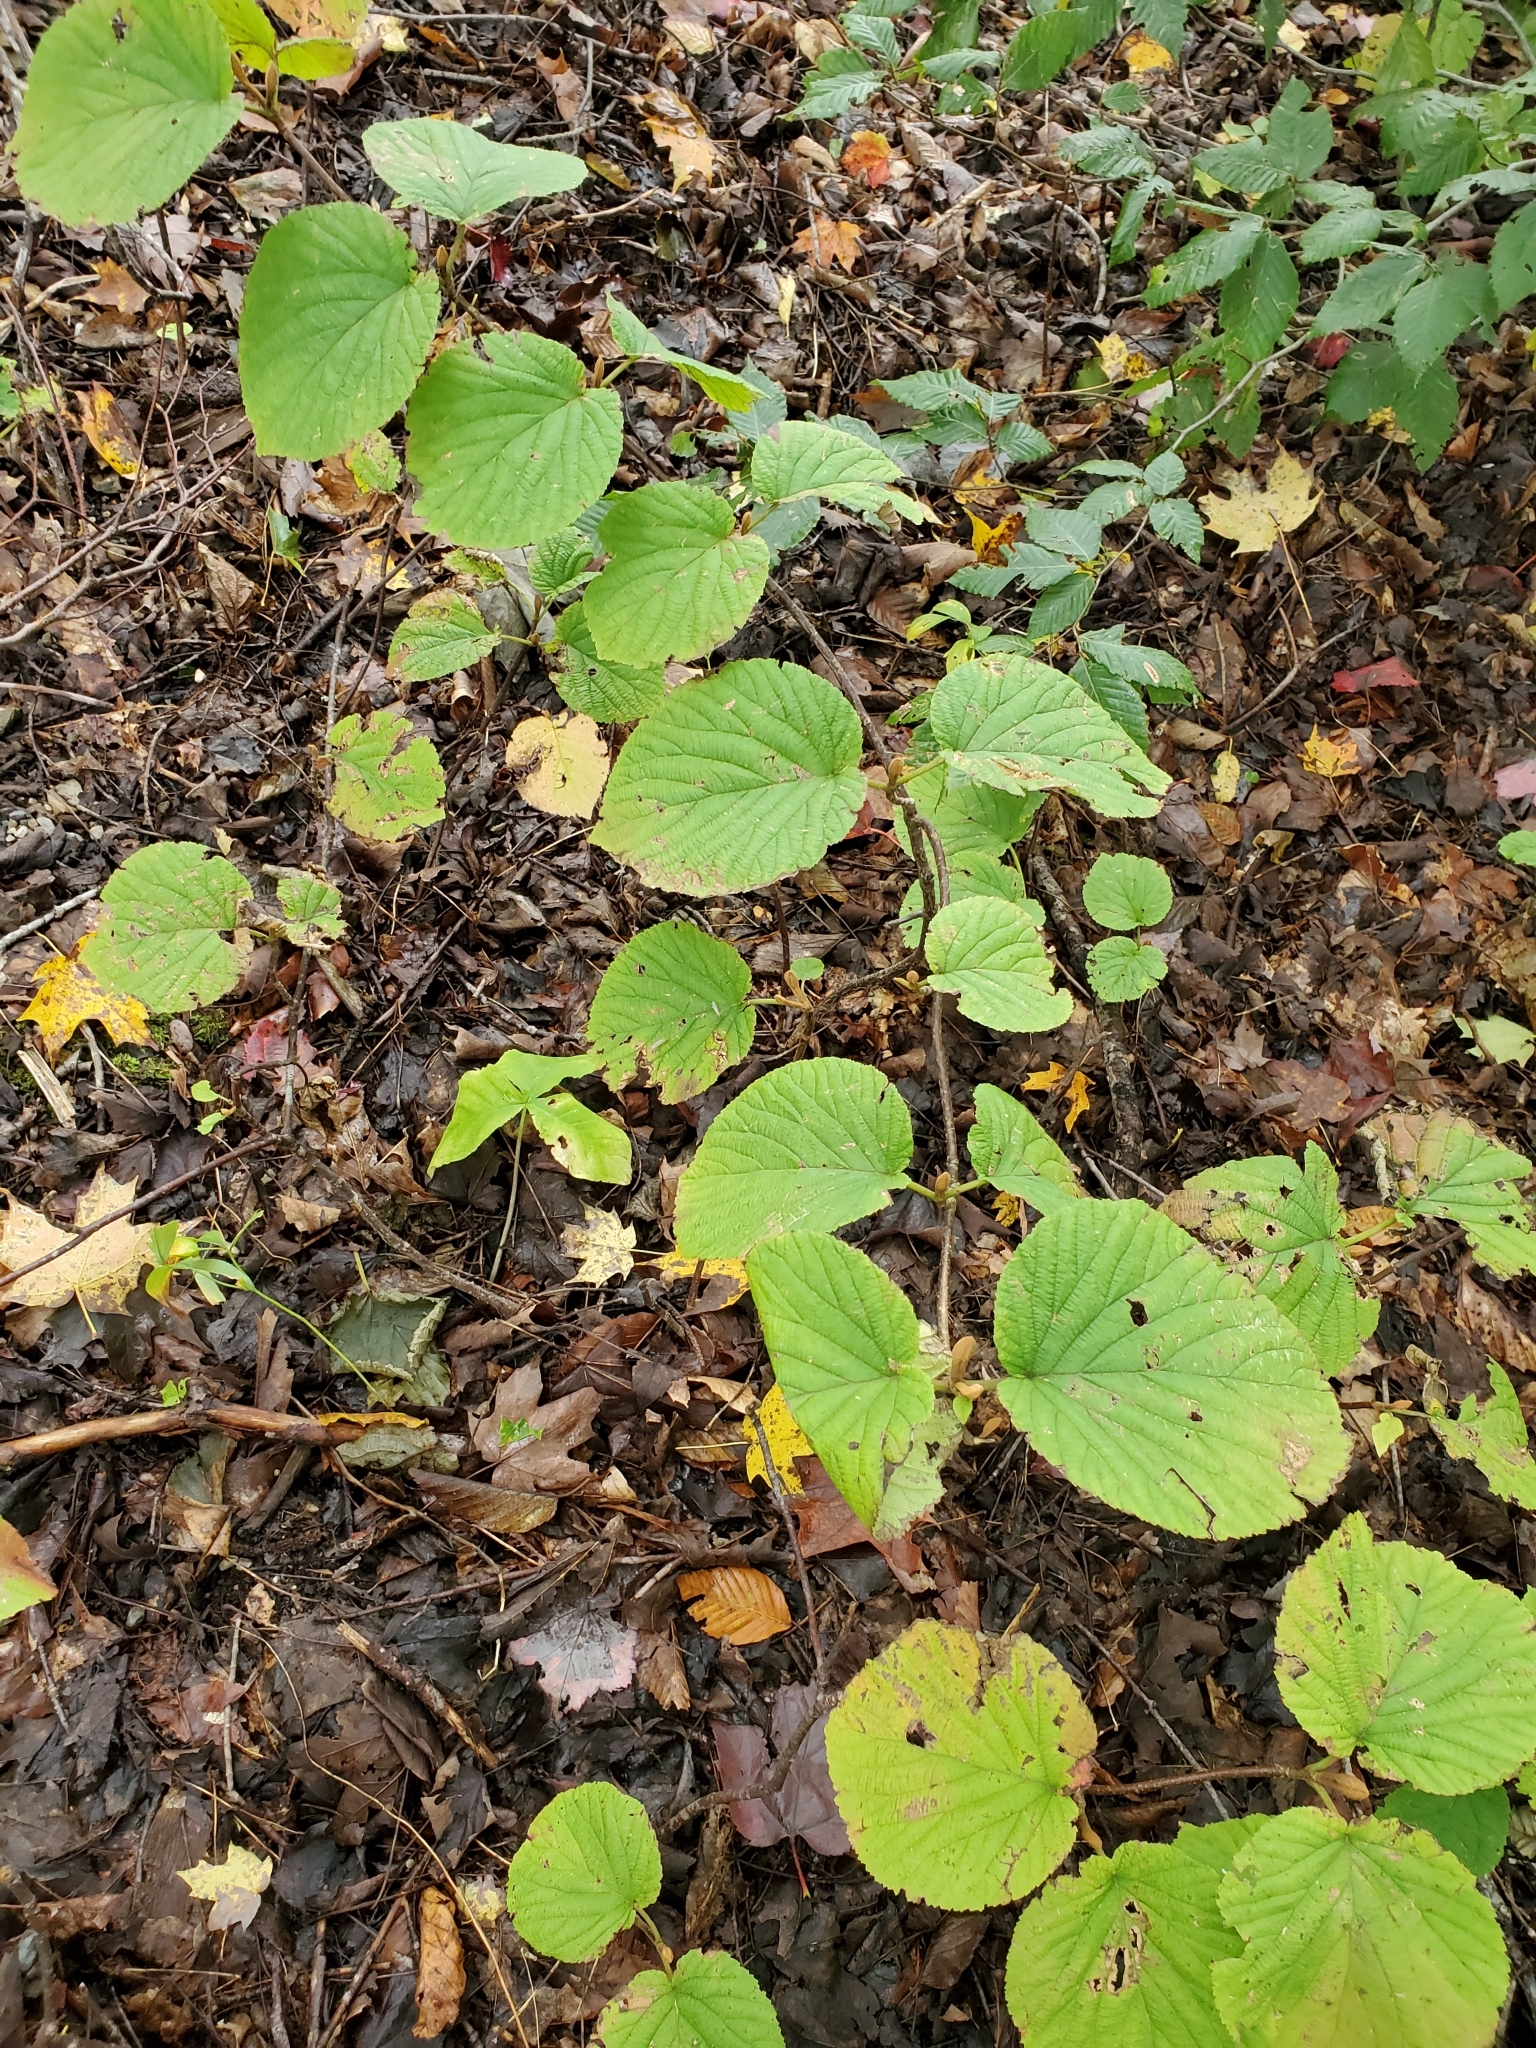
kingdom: Plantae
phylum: Tracheophyta
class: Magnoliopsida
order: Dipsacales
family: Viburnaceae
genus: Viburnum
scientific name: Viburnum lantanoides
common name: Hobblebush
